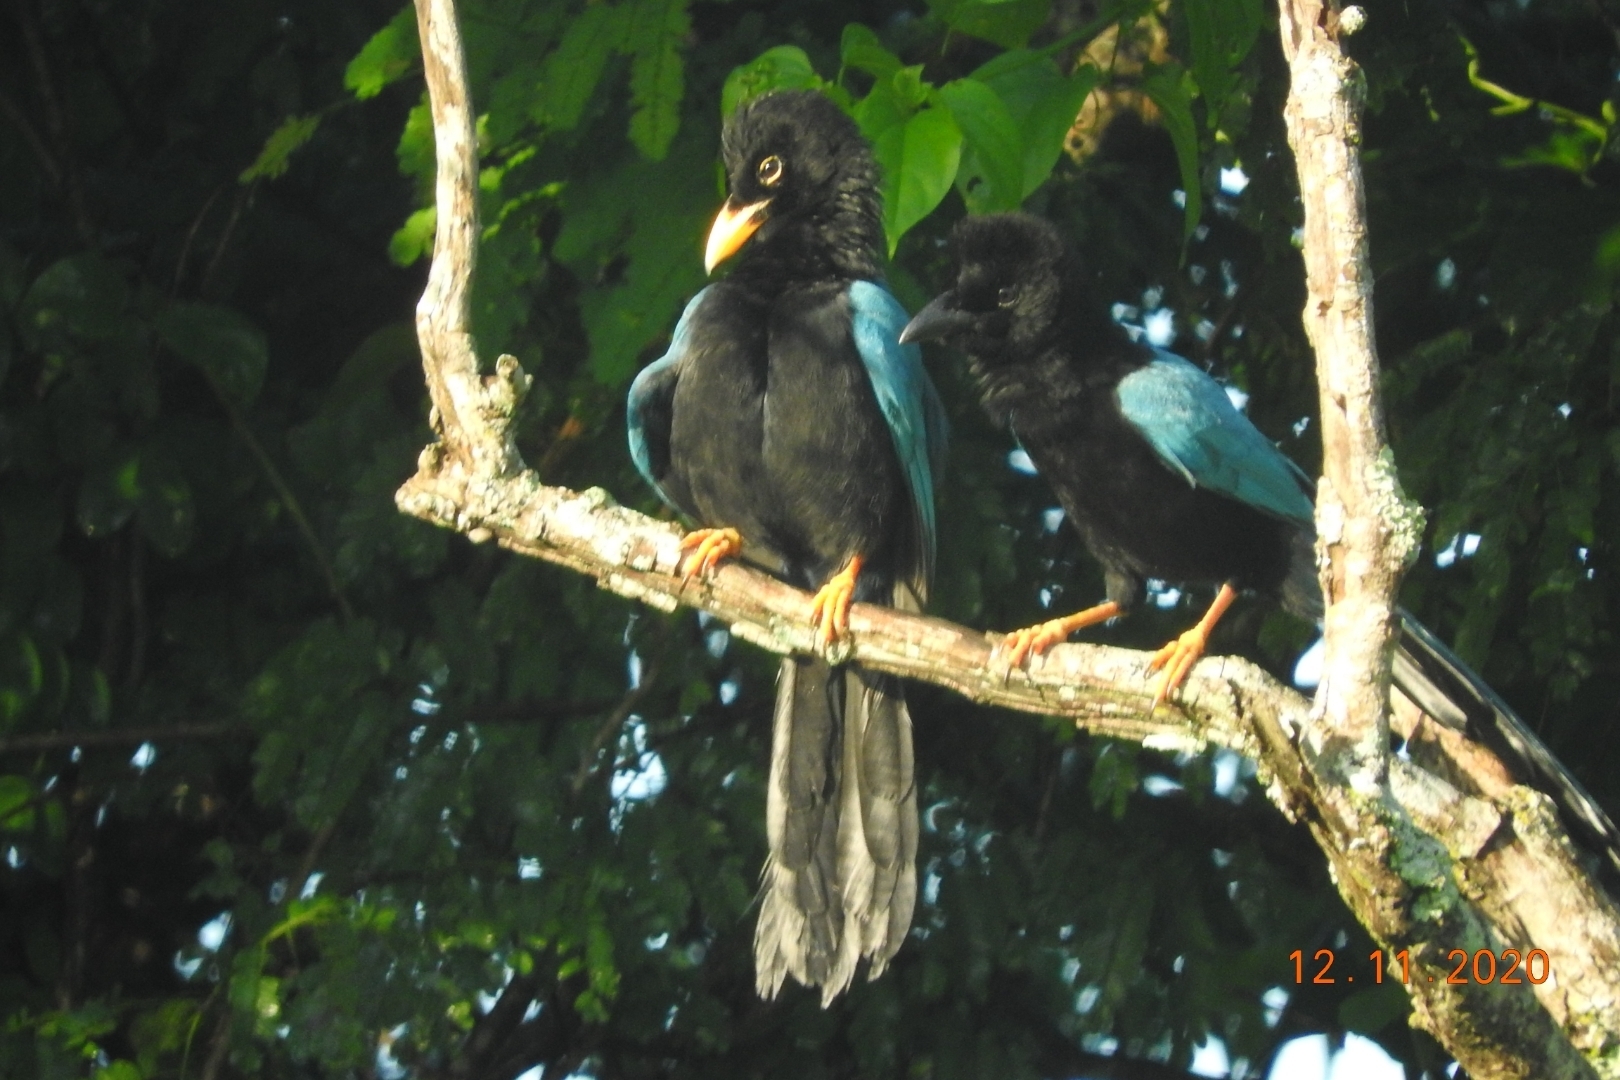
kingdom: Animalia
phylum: Chordata
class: Aves
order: Passeriformes
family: Corvidae
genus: Cyanocorax
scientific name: Cyanocorax yucatanicus
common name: Yucatan jay
